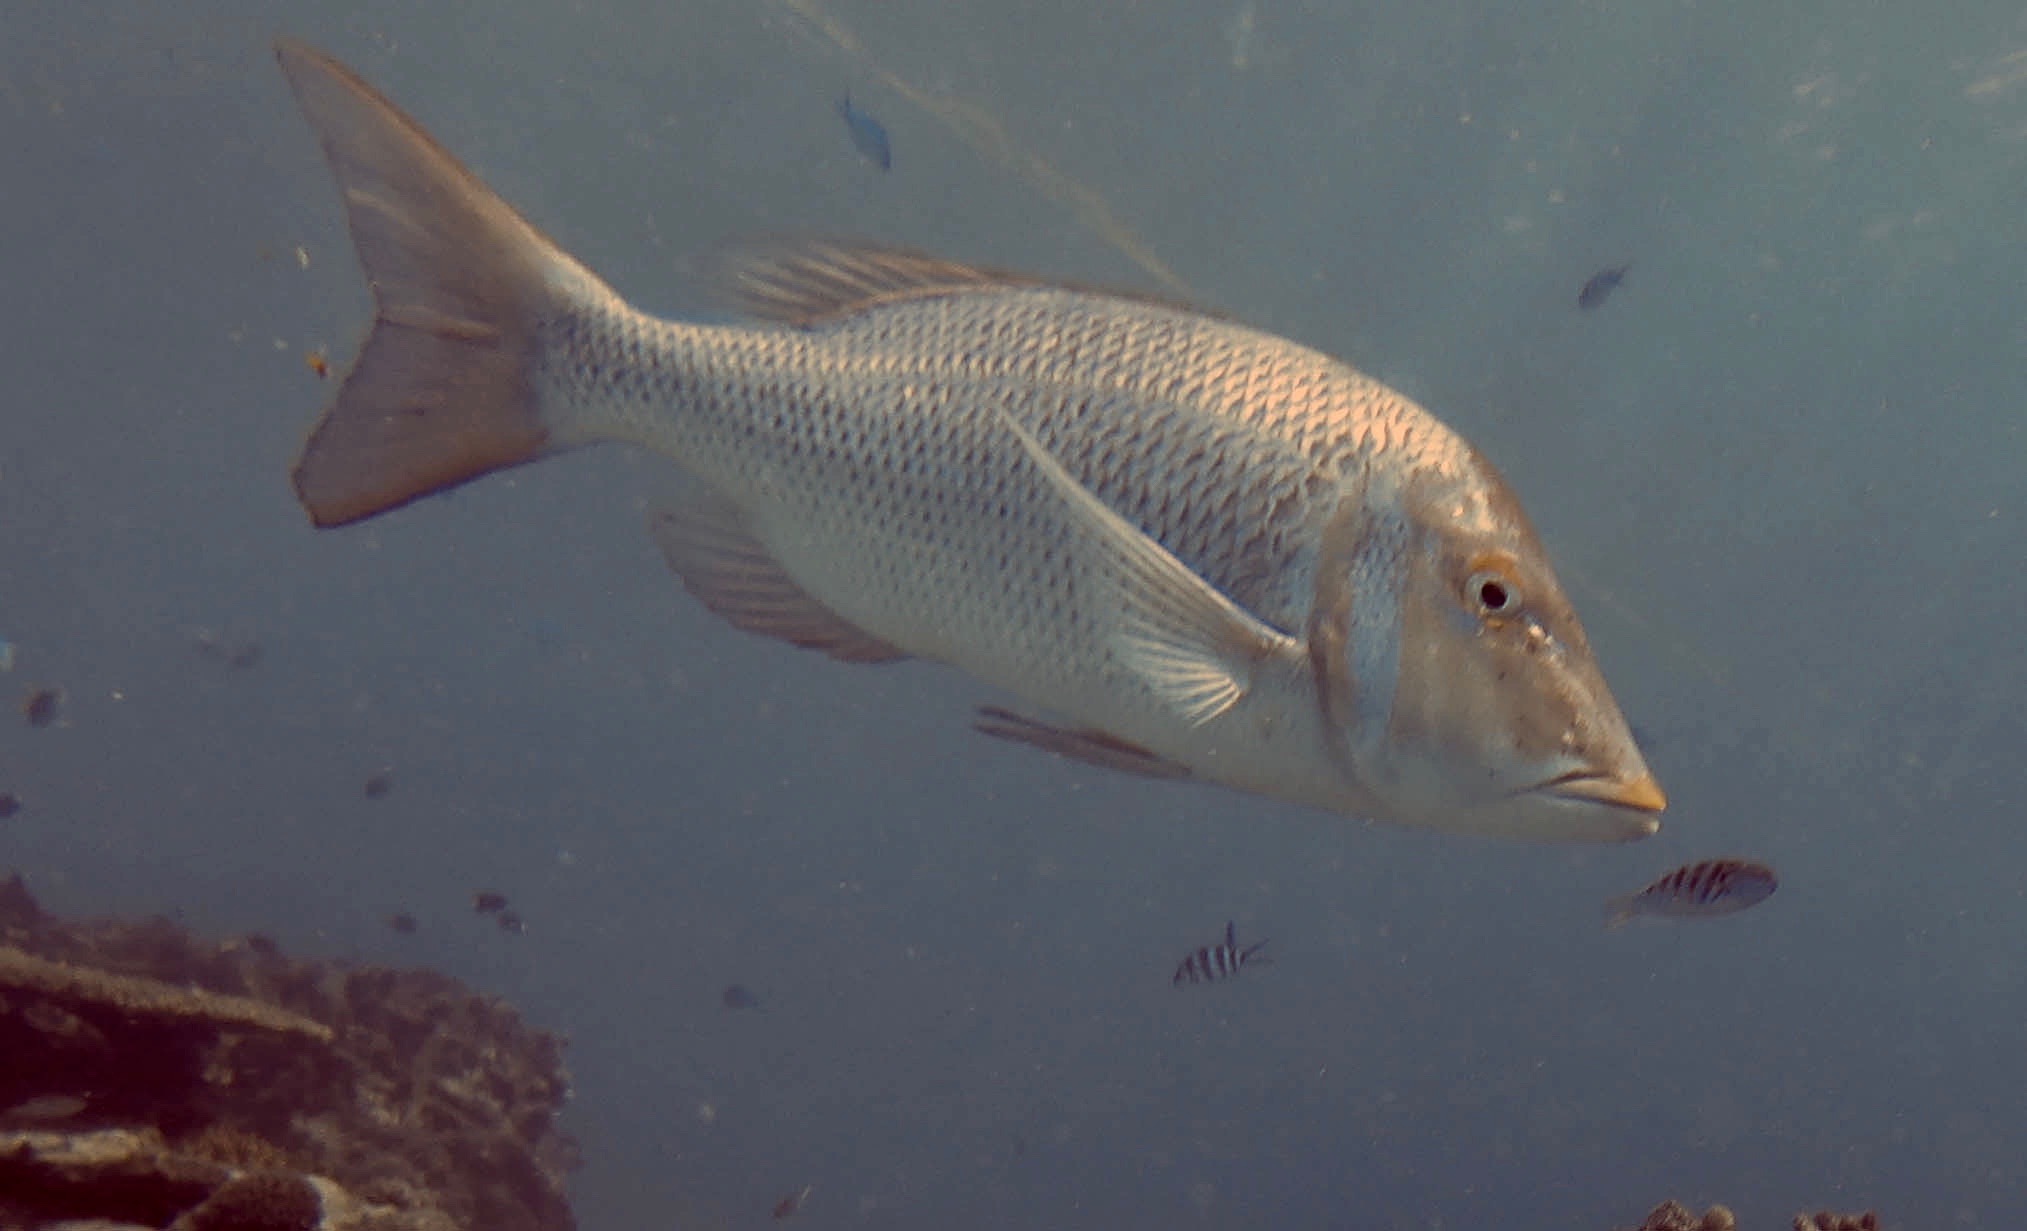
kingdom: Animalia
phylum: Chordata
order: Perciformes
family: Lethrinidae
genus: Lethrinus
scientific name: Lethrinus nebulosus
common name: Spangled emperor
